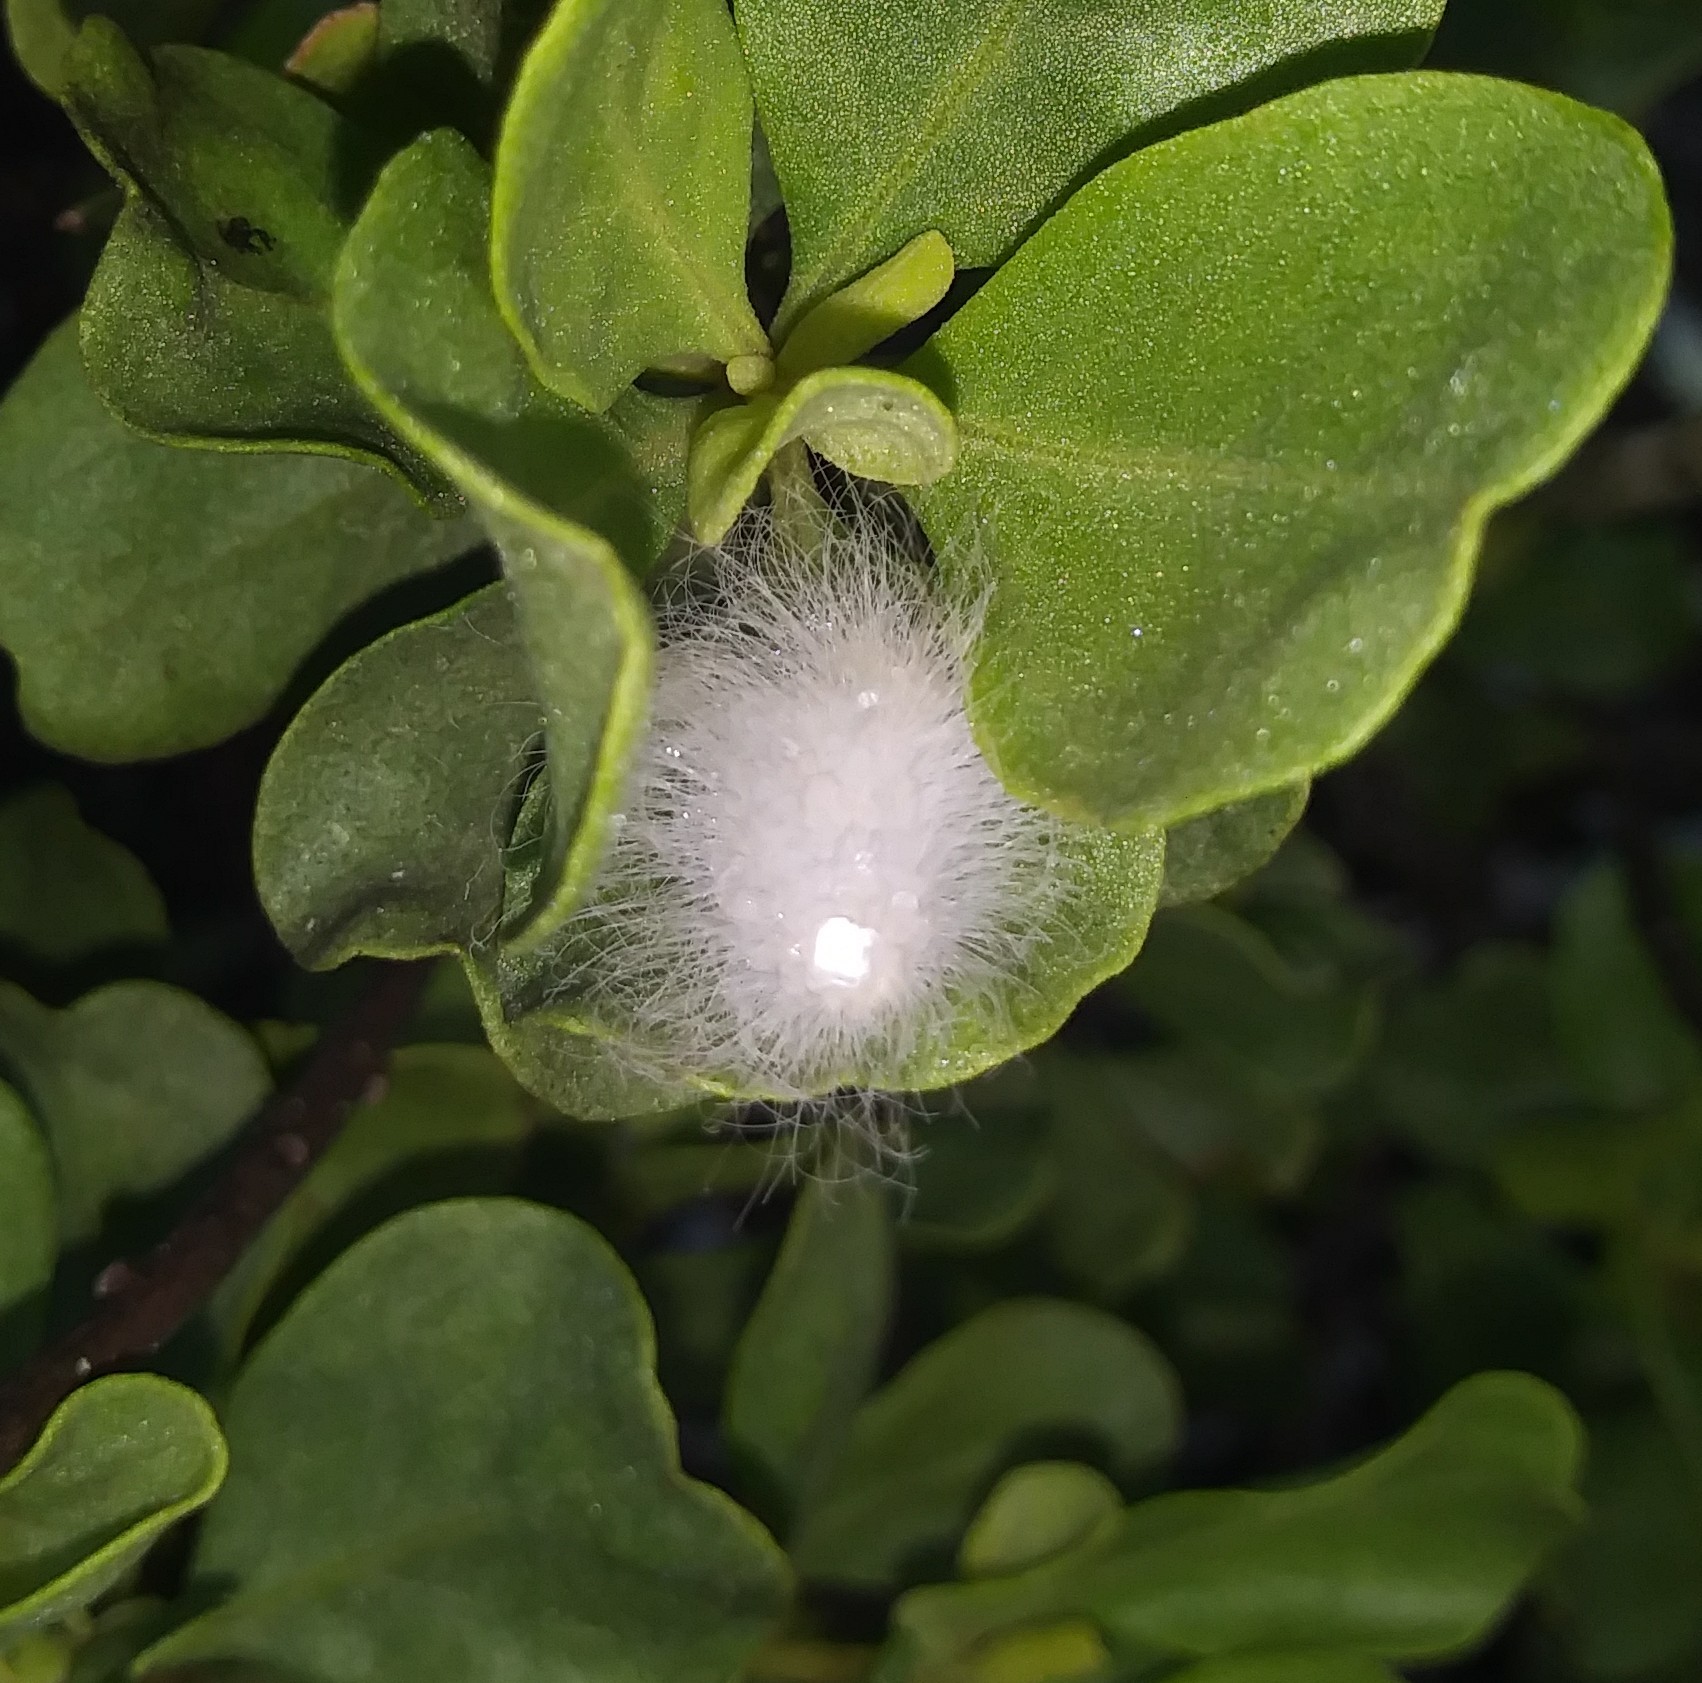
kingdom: Animalia
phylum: Arthropoda
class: Insecta
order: Lepidoptera
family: Megalopygidae
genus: Megalopyge
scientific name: Megalopyge
